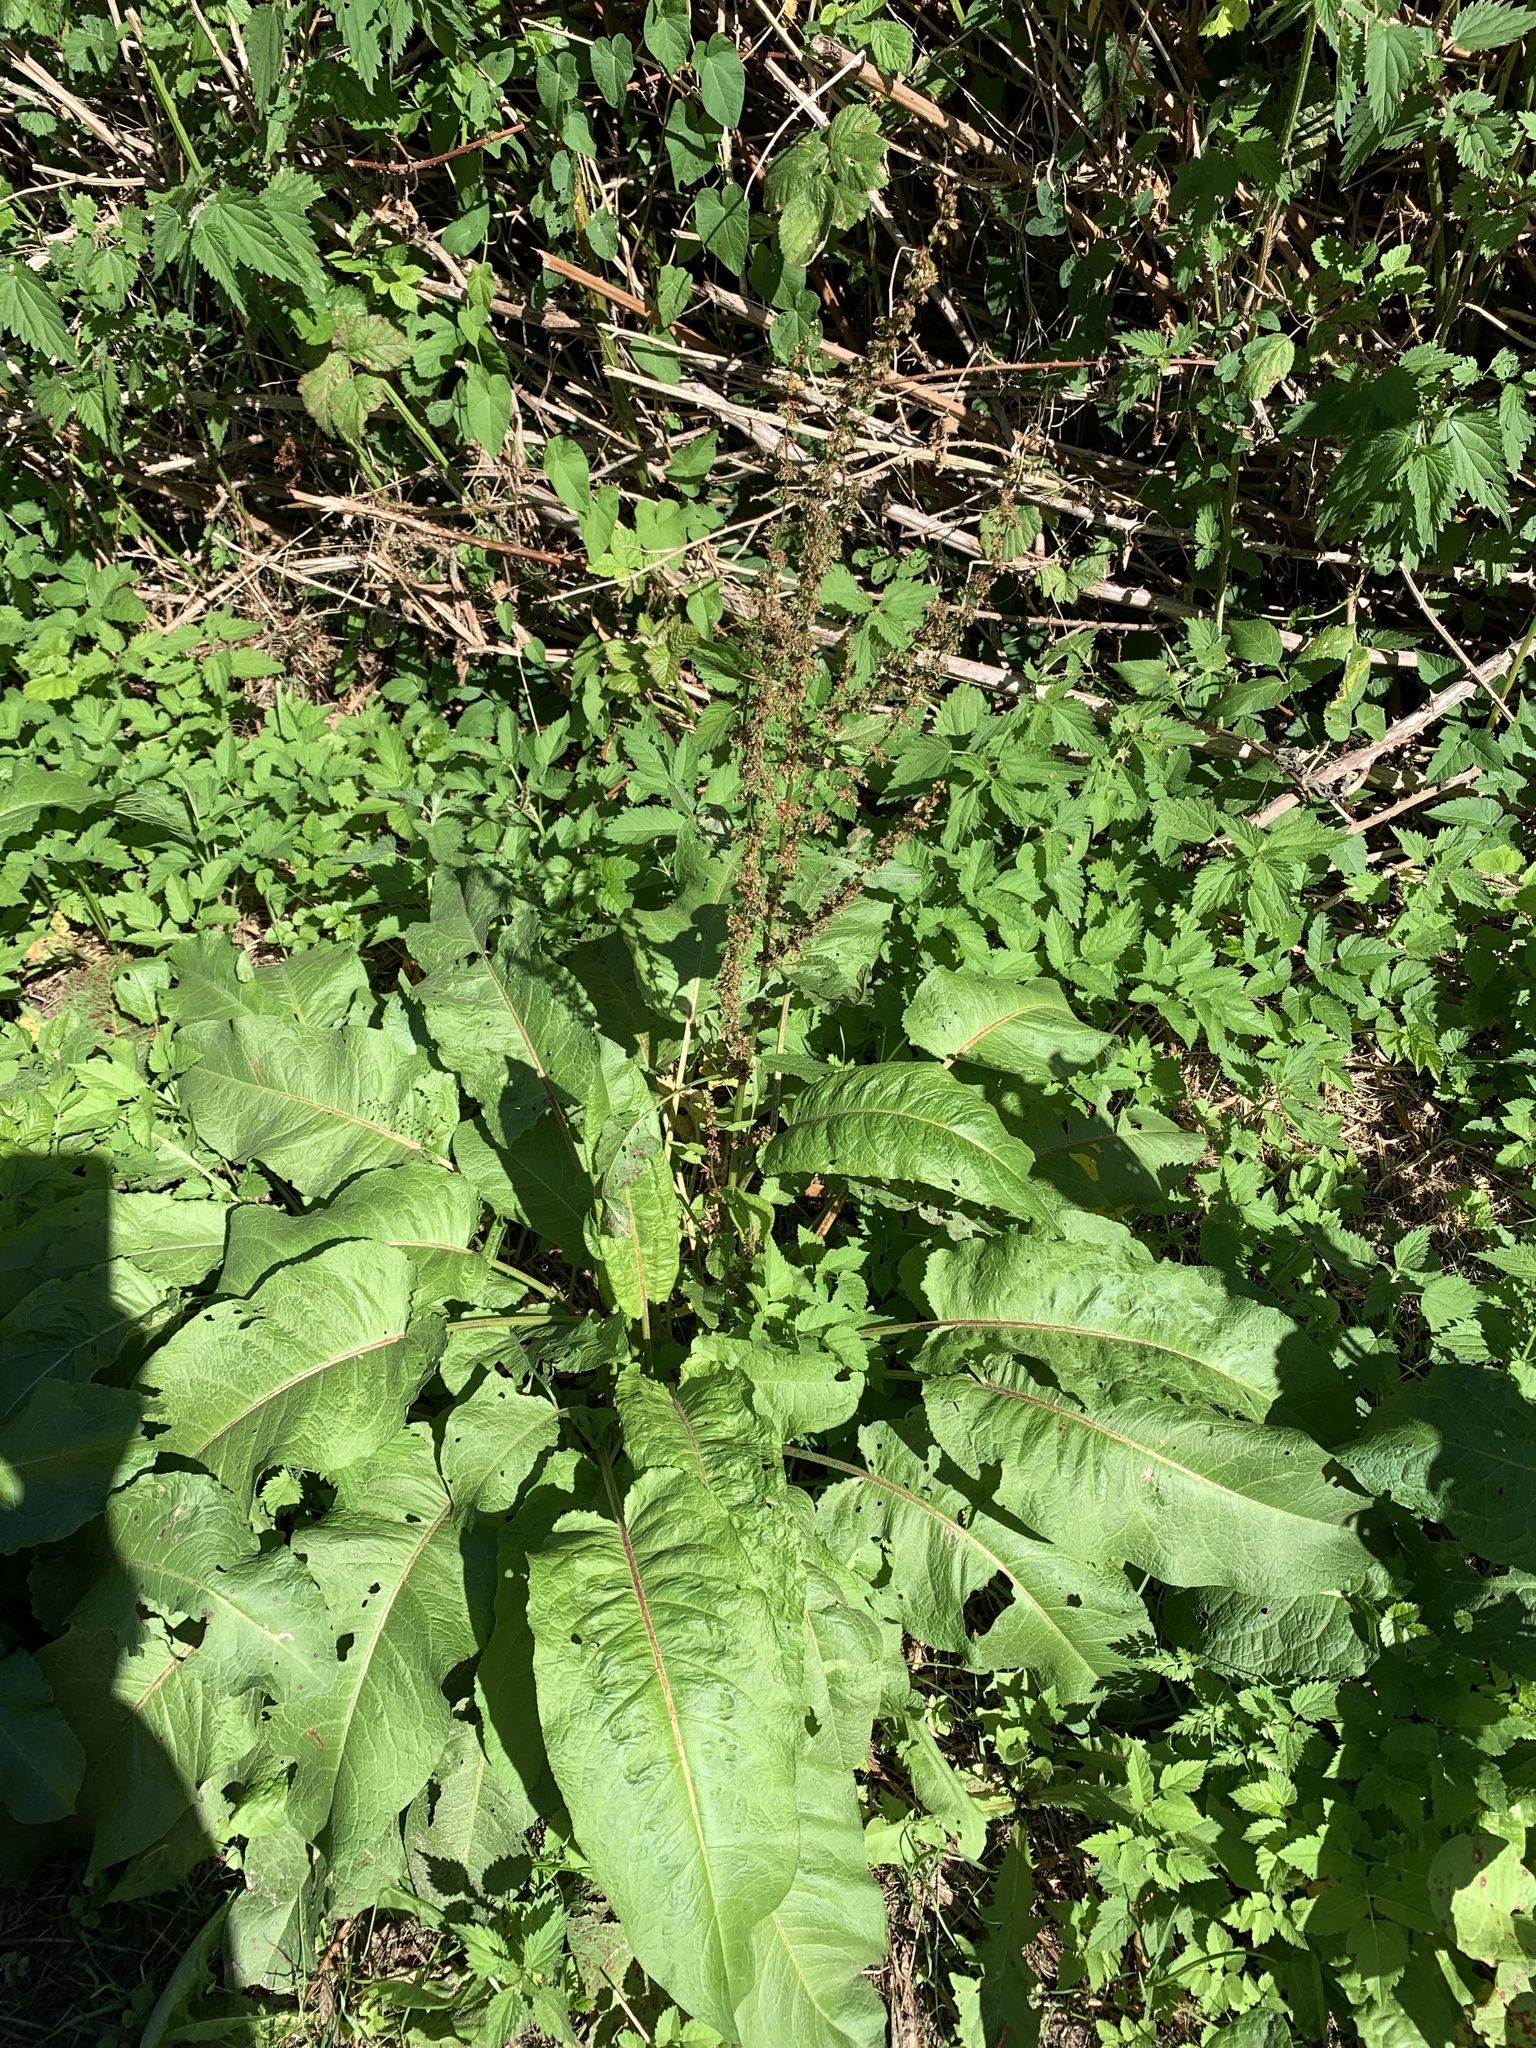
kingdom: Plantae
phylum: Tracheophyta
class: Magnoliopsida
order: Caryophyllales
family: Polygonaceae
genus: Rumex
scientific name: Rumex sanguineus
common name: Wood dock
